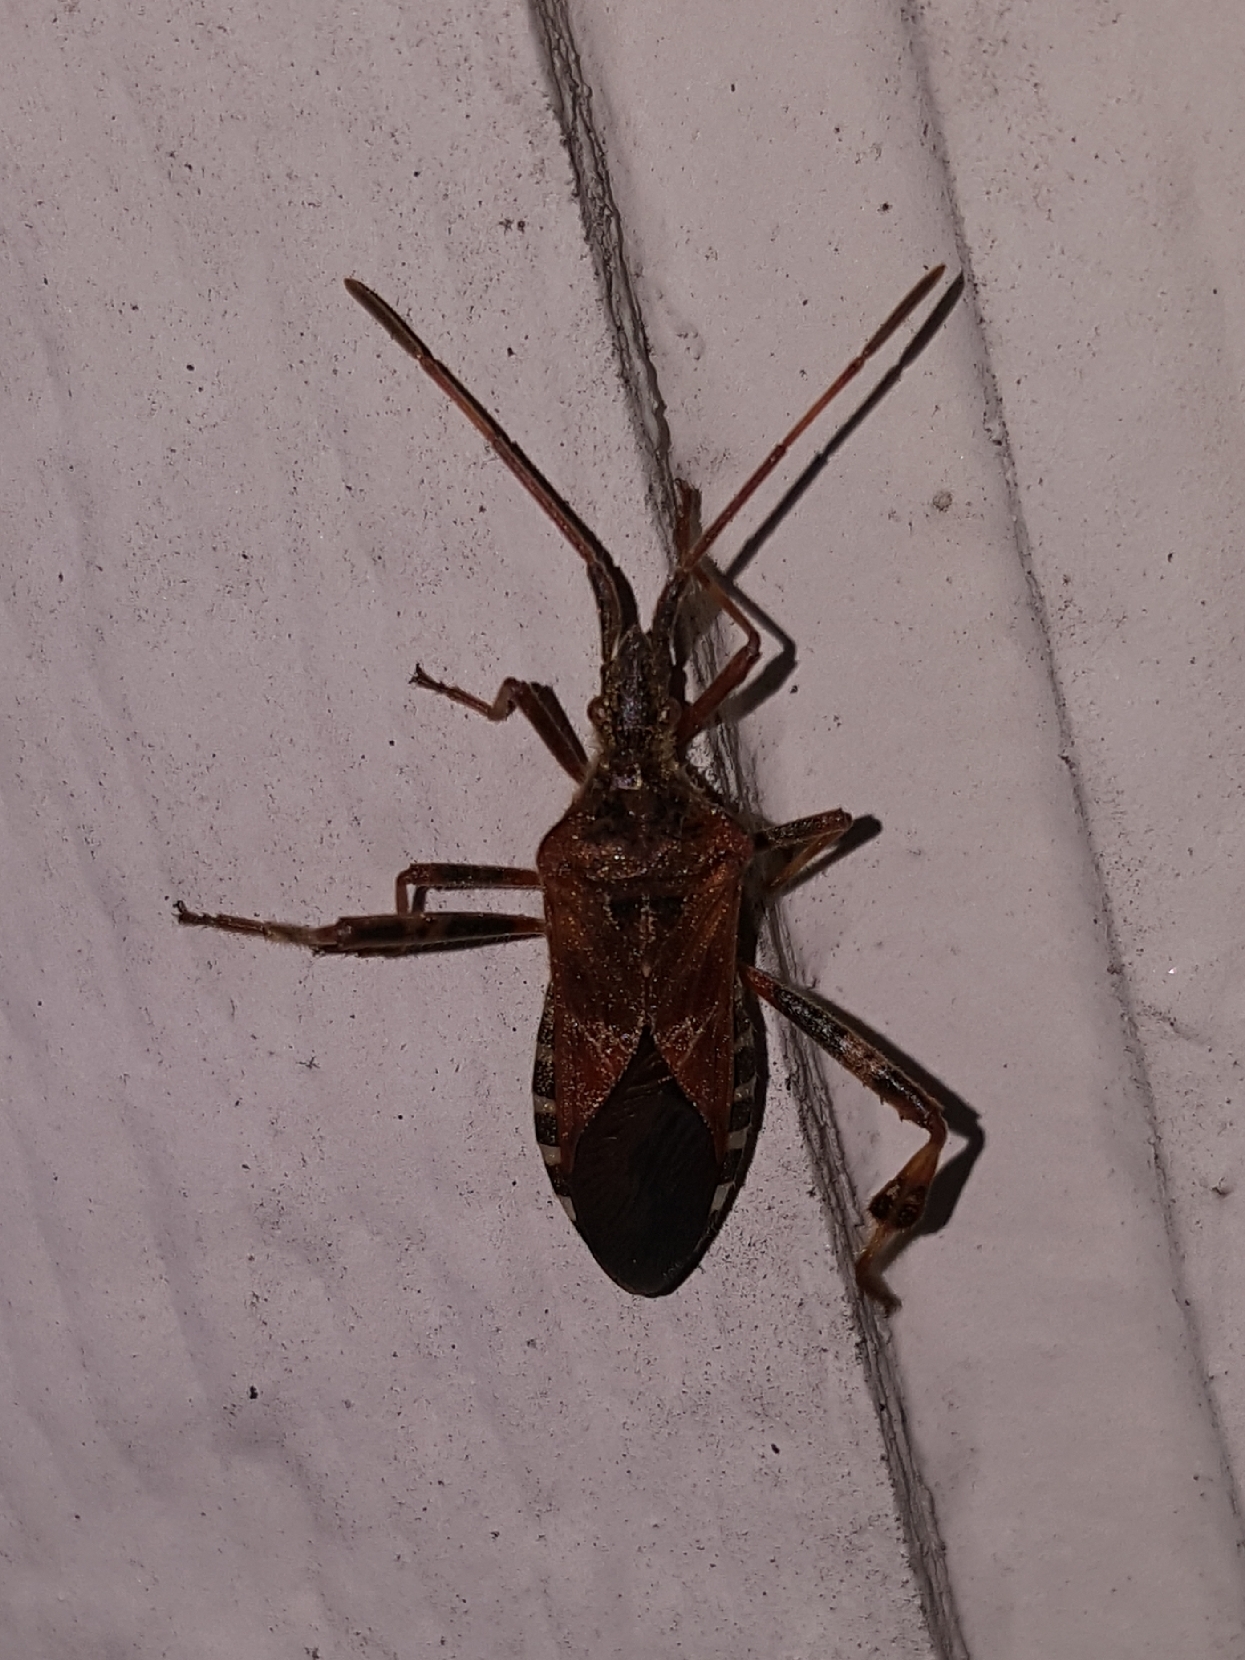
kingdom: Animalia
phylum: Arthropoda
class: Insecta
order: Hemiptera
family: Coreidae
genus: Leptoglossus
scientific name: Leptoglossus occidentalis
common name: Western conifer-seed bug
